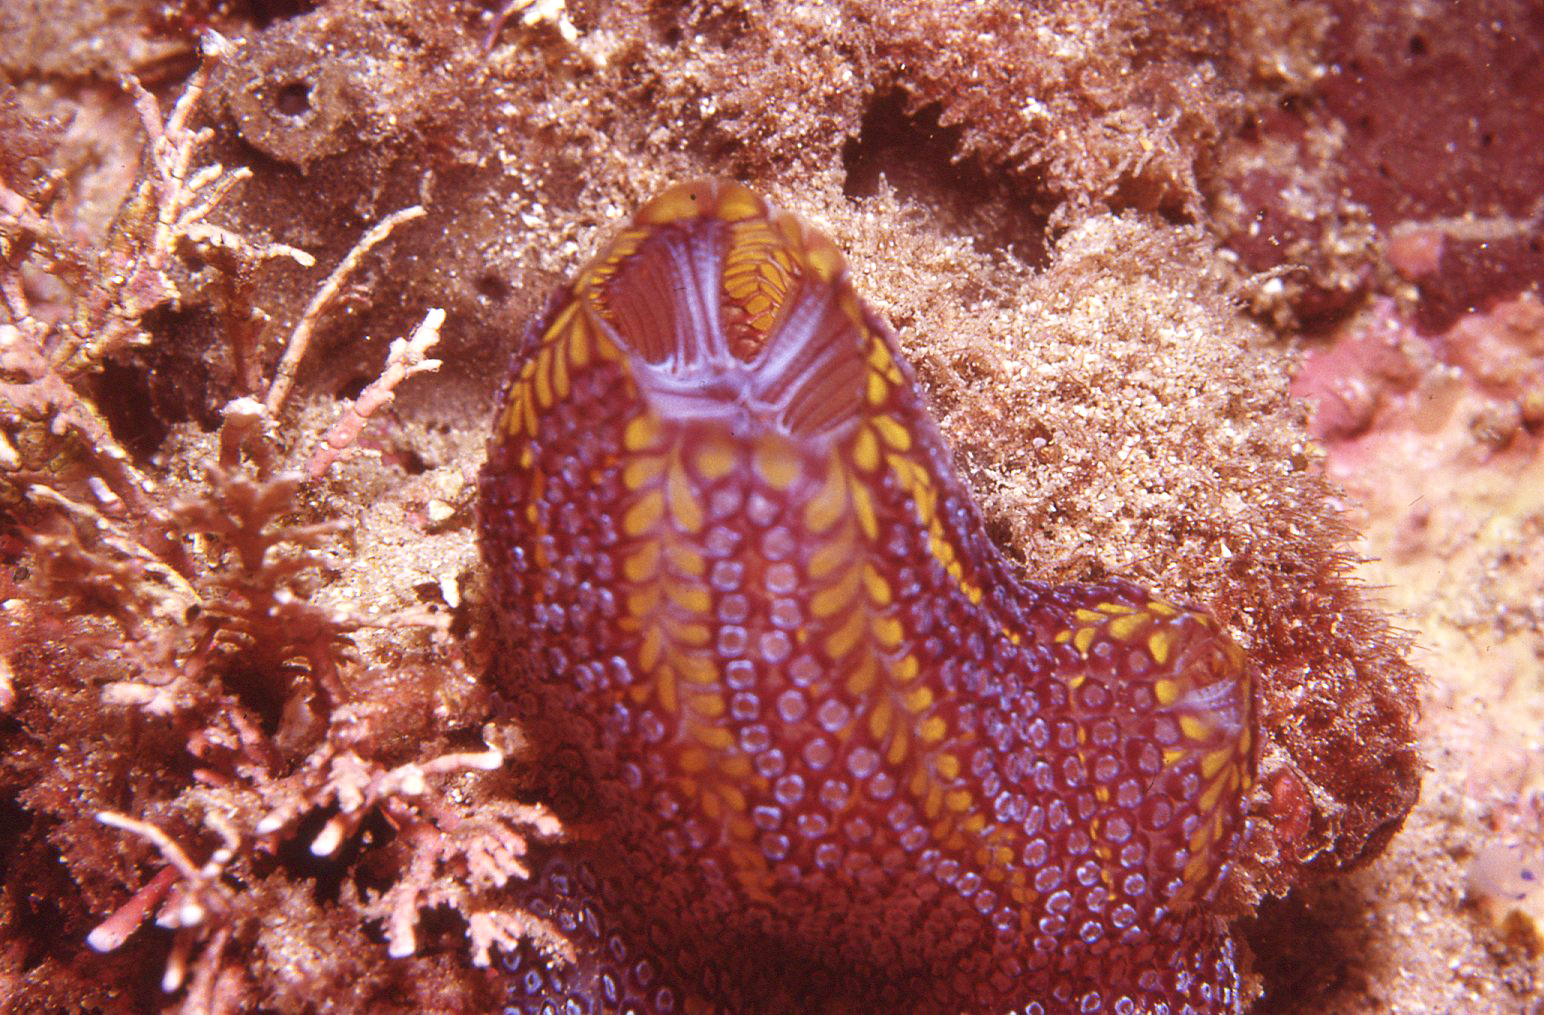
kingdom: Animalia
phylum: Chordata
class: Ascidiacea
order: Stolidobranchia
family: Styelidae
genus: Botrylloides
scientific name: Botrylloides magnicoecus
